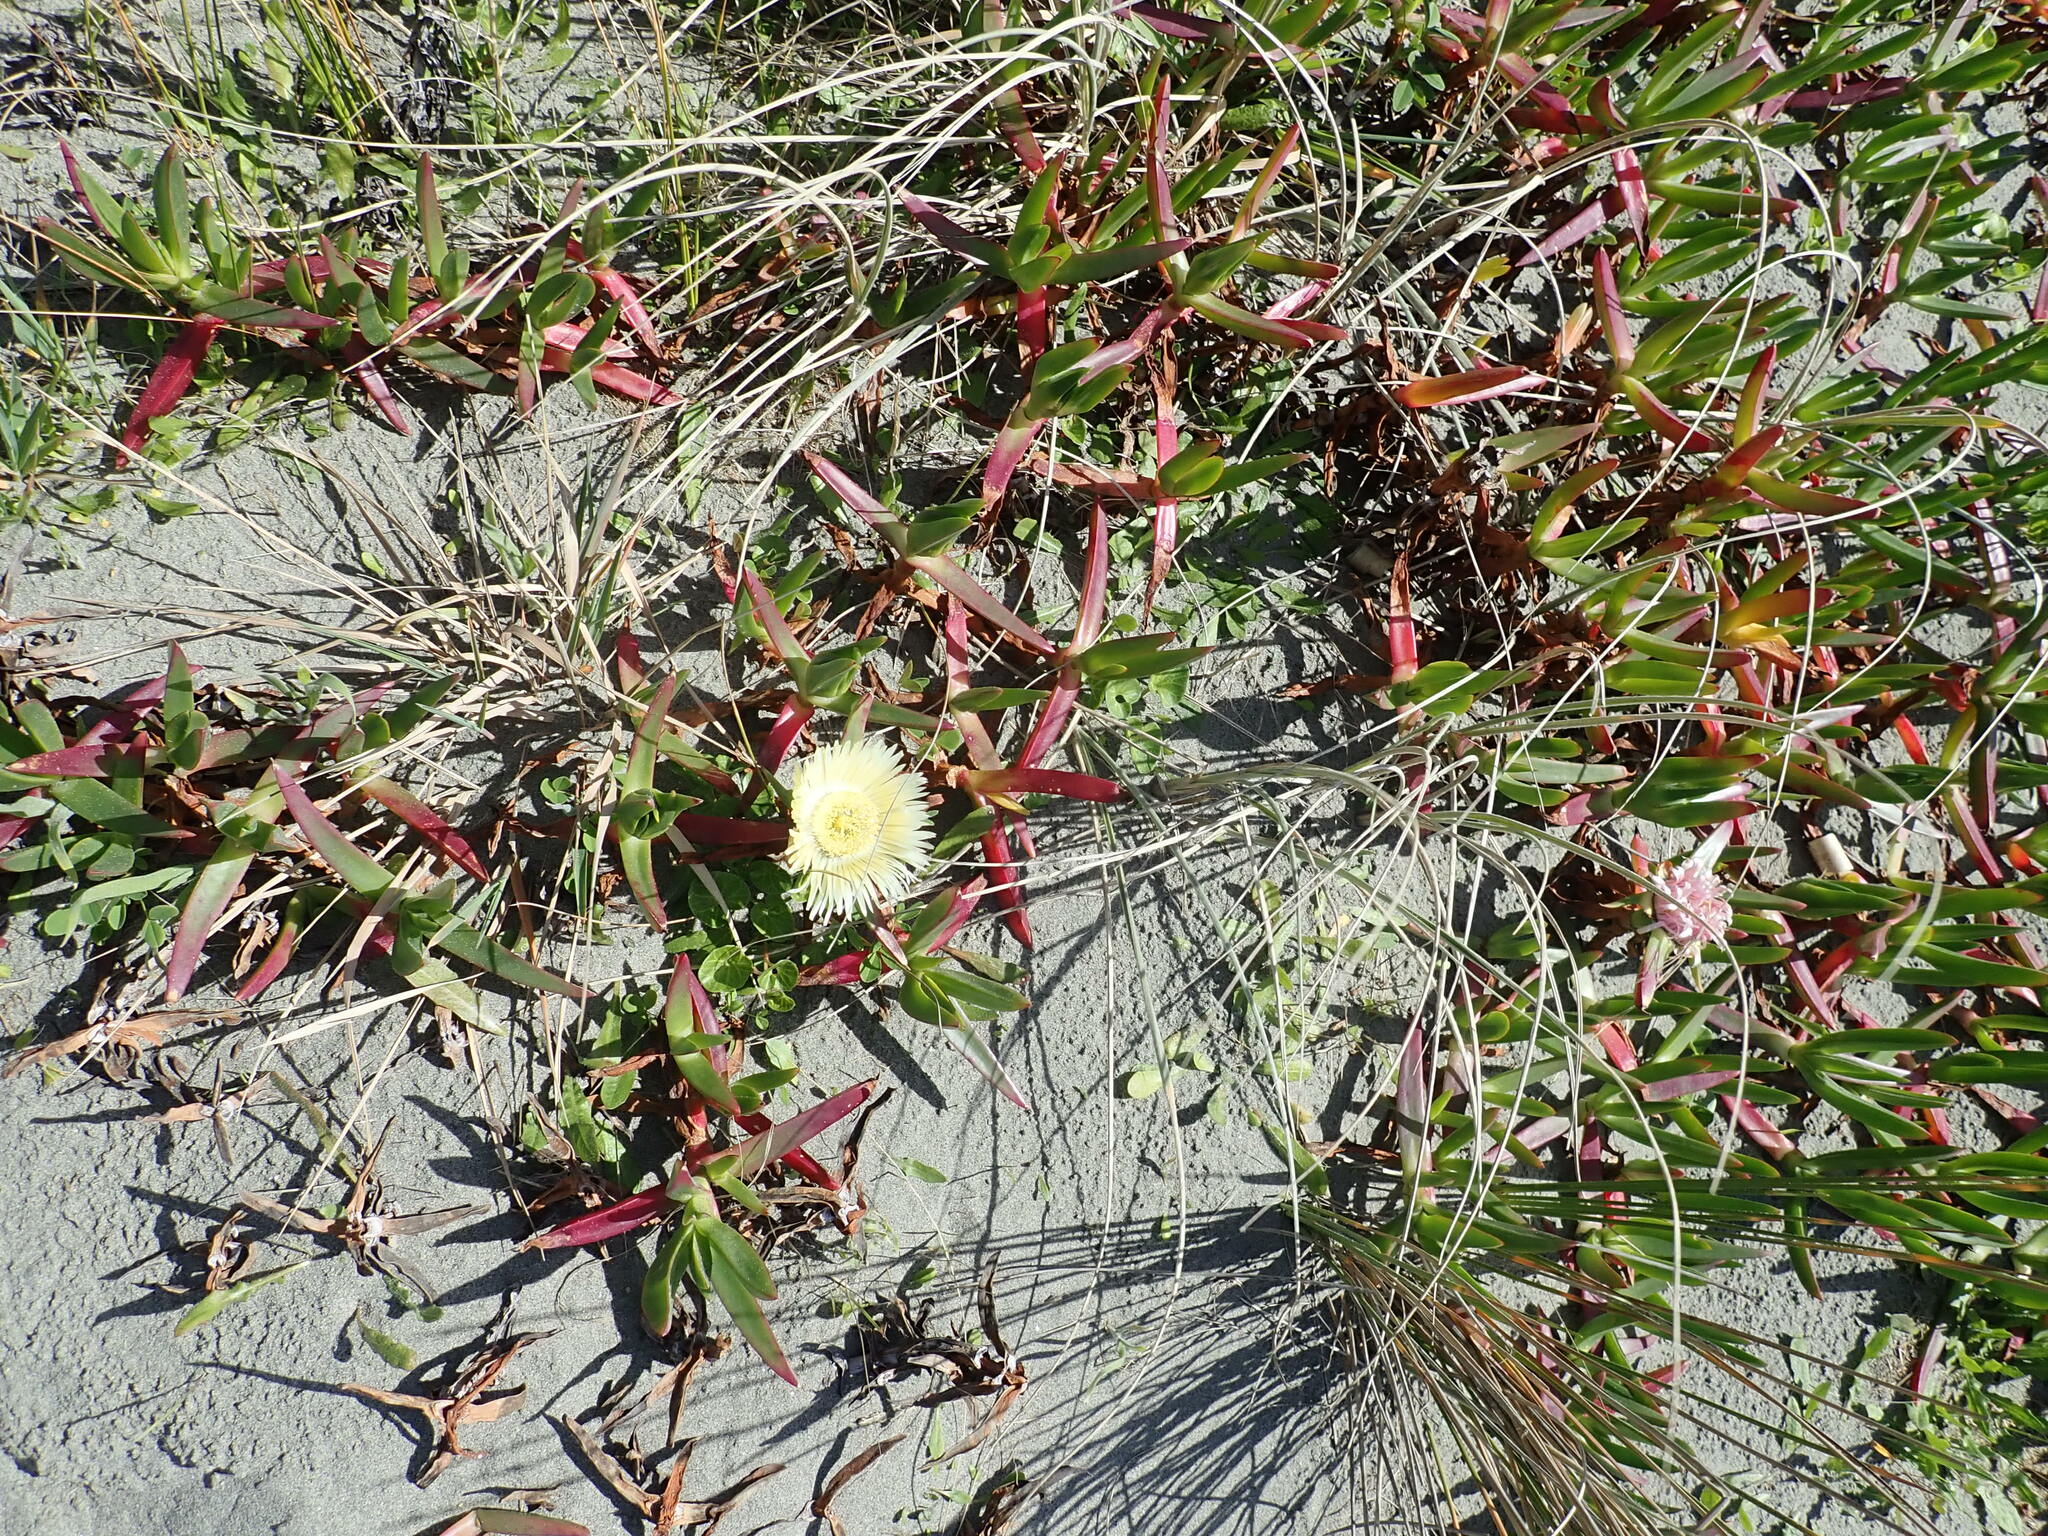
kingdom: Plantae
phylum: Tracheophyta
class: Magnoliopsida
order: Caryophyllales
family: Aizoaceae
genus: Carpobrotus
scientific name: Carpobrotus edulis
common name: Hottentot-fig
